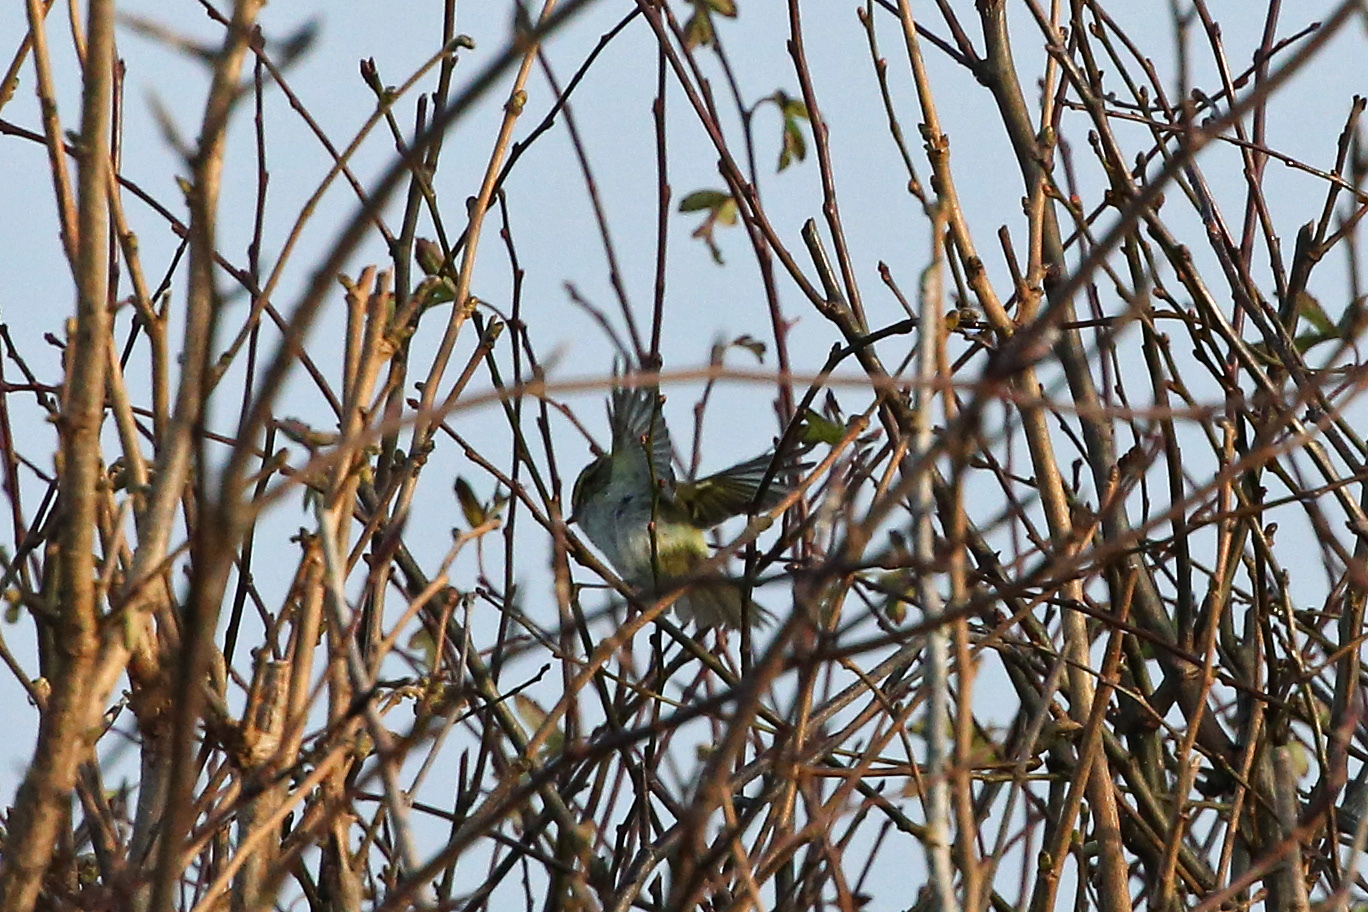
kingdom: Animalia
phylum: Chordata
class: Aves
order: Passeriformes
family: Phylloscopidae
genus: Phylloscopus
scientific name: Phylloscopus proregulus
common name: Pallas's leaf warbler
